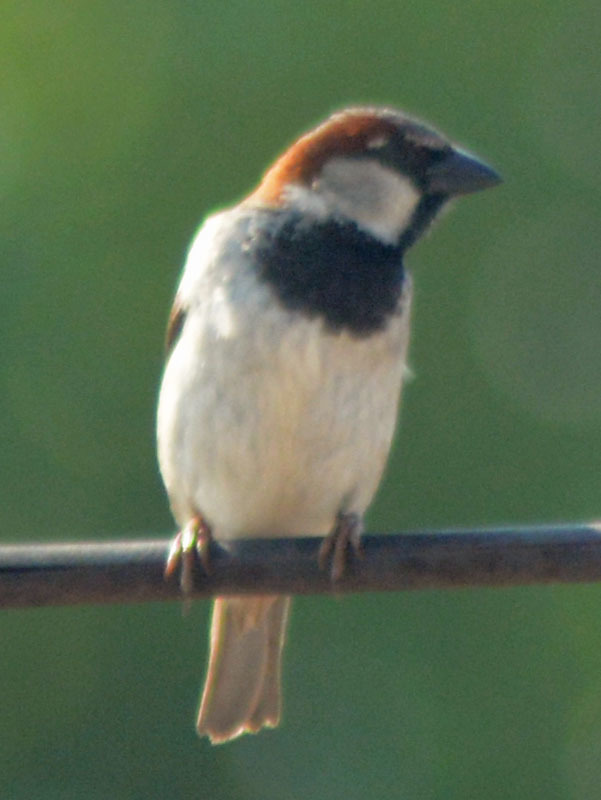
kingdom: Animalia
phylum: Chordata
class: Aves
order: Passeriformes
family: Passeridae
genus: Passer
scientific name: Passer domesticus
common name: House sparrow
